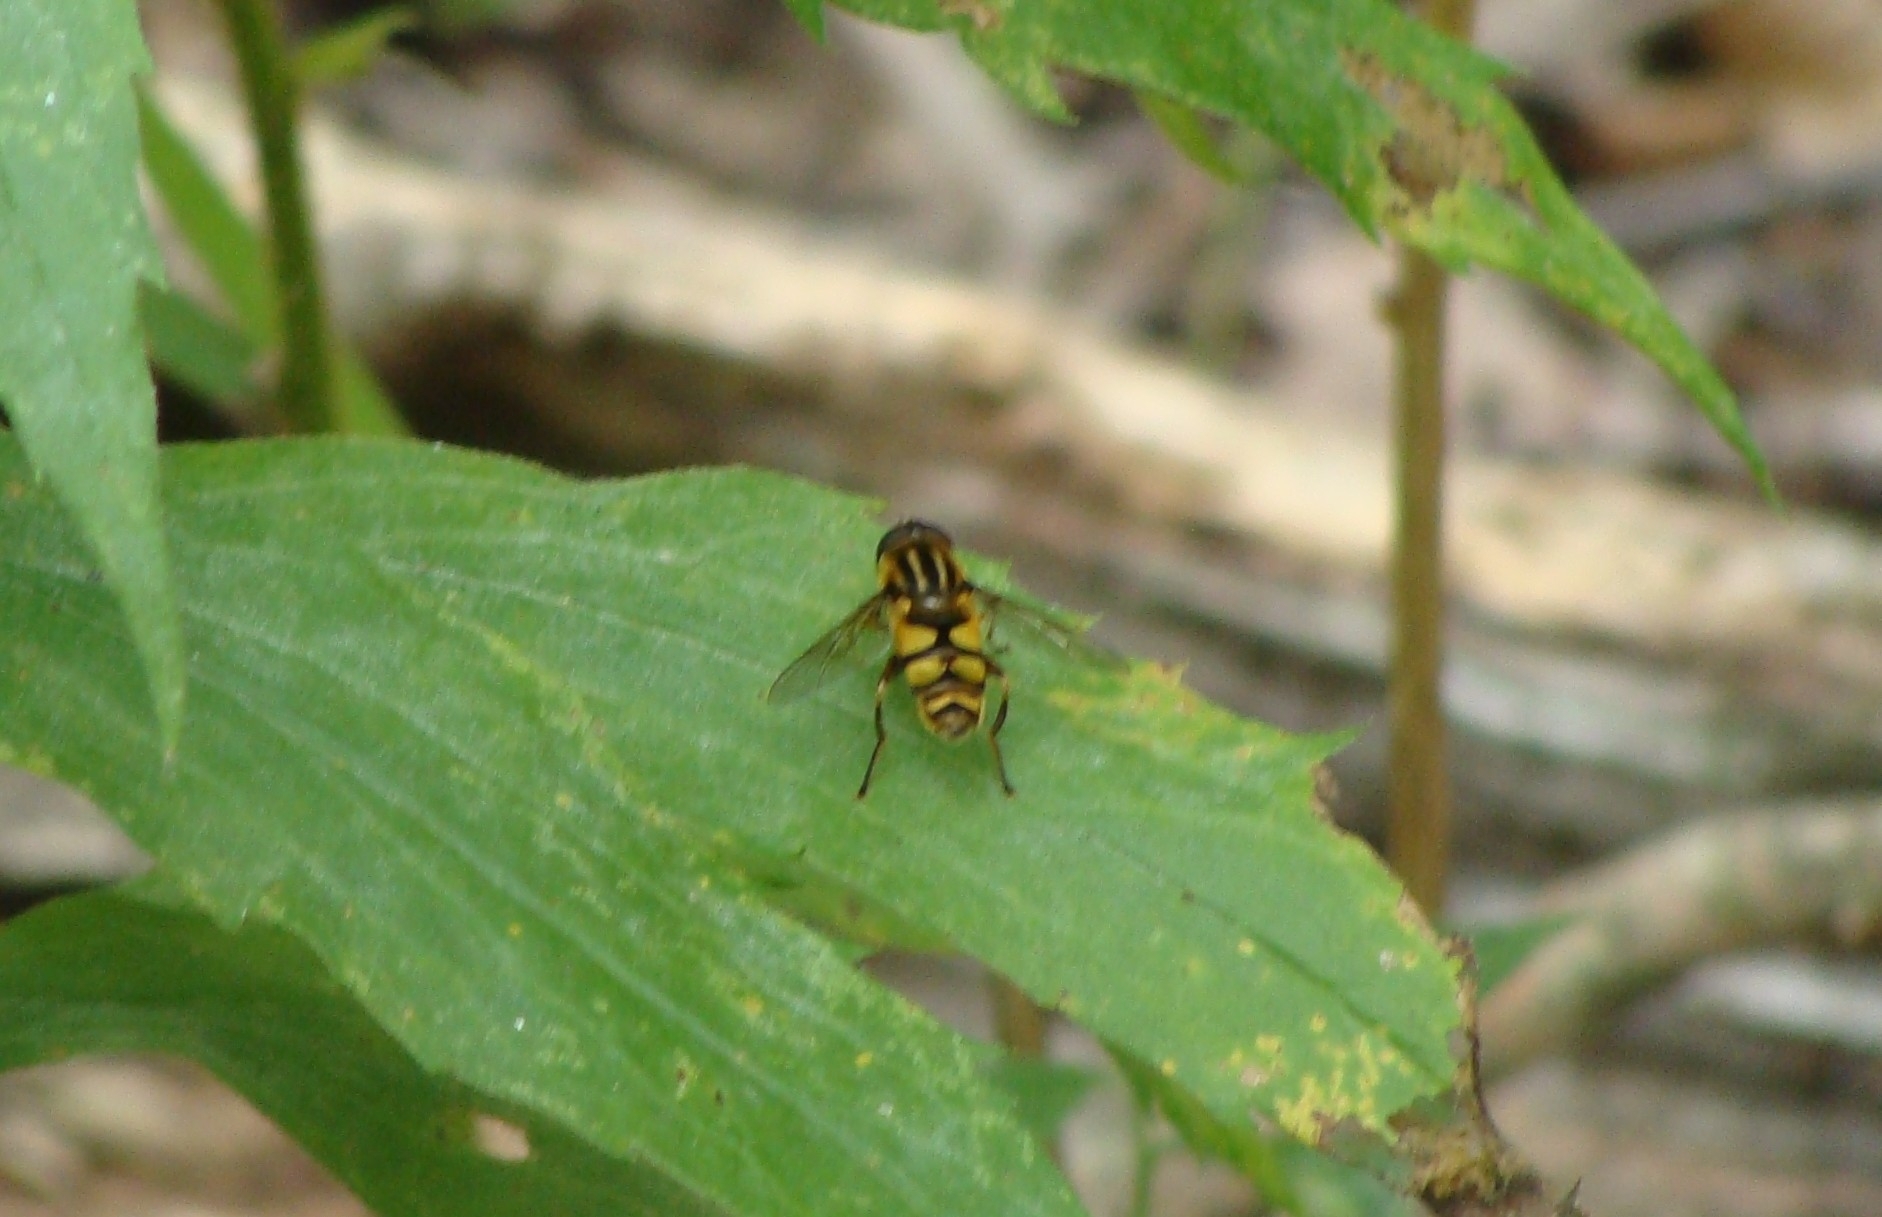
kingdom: Animalia
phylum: Arthropoda
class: Insecta
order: Diptera
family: Syrphidae
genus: Helophilus
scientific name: Helophilus fasciatus
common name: Narrow-headed marsh fly
